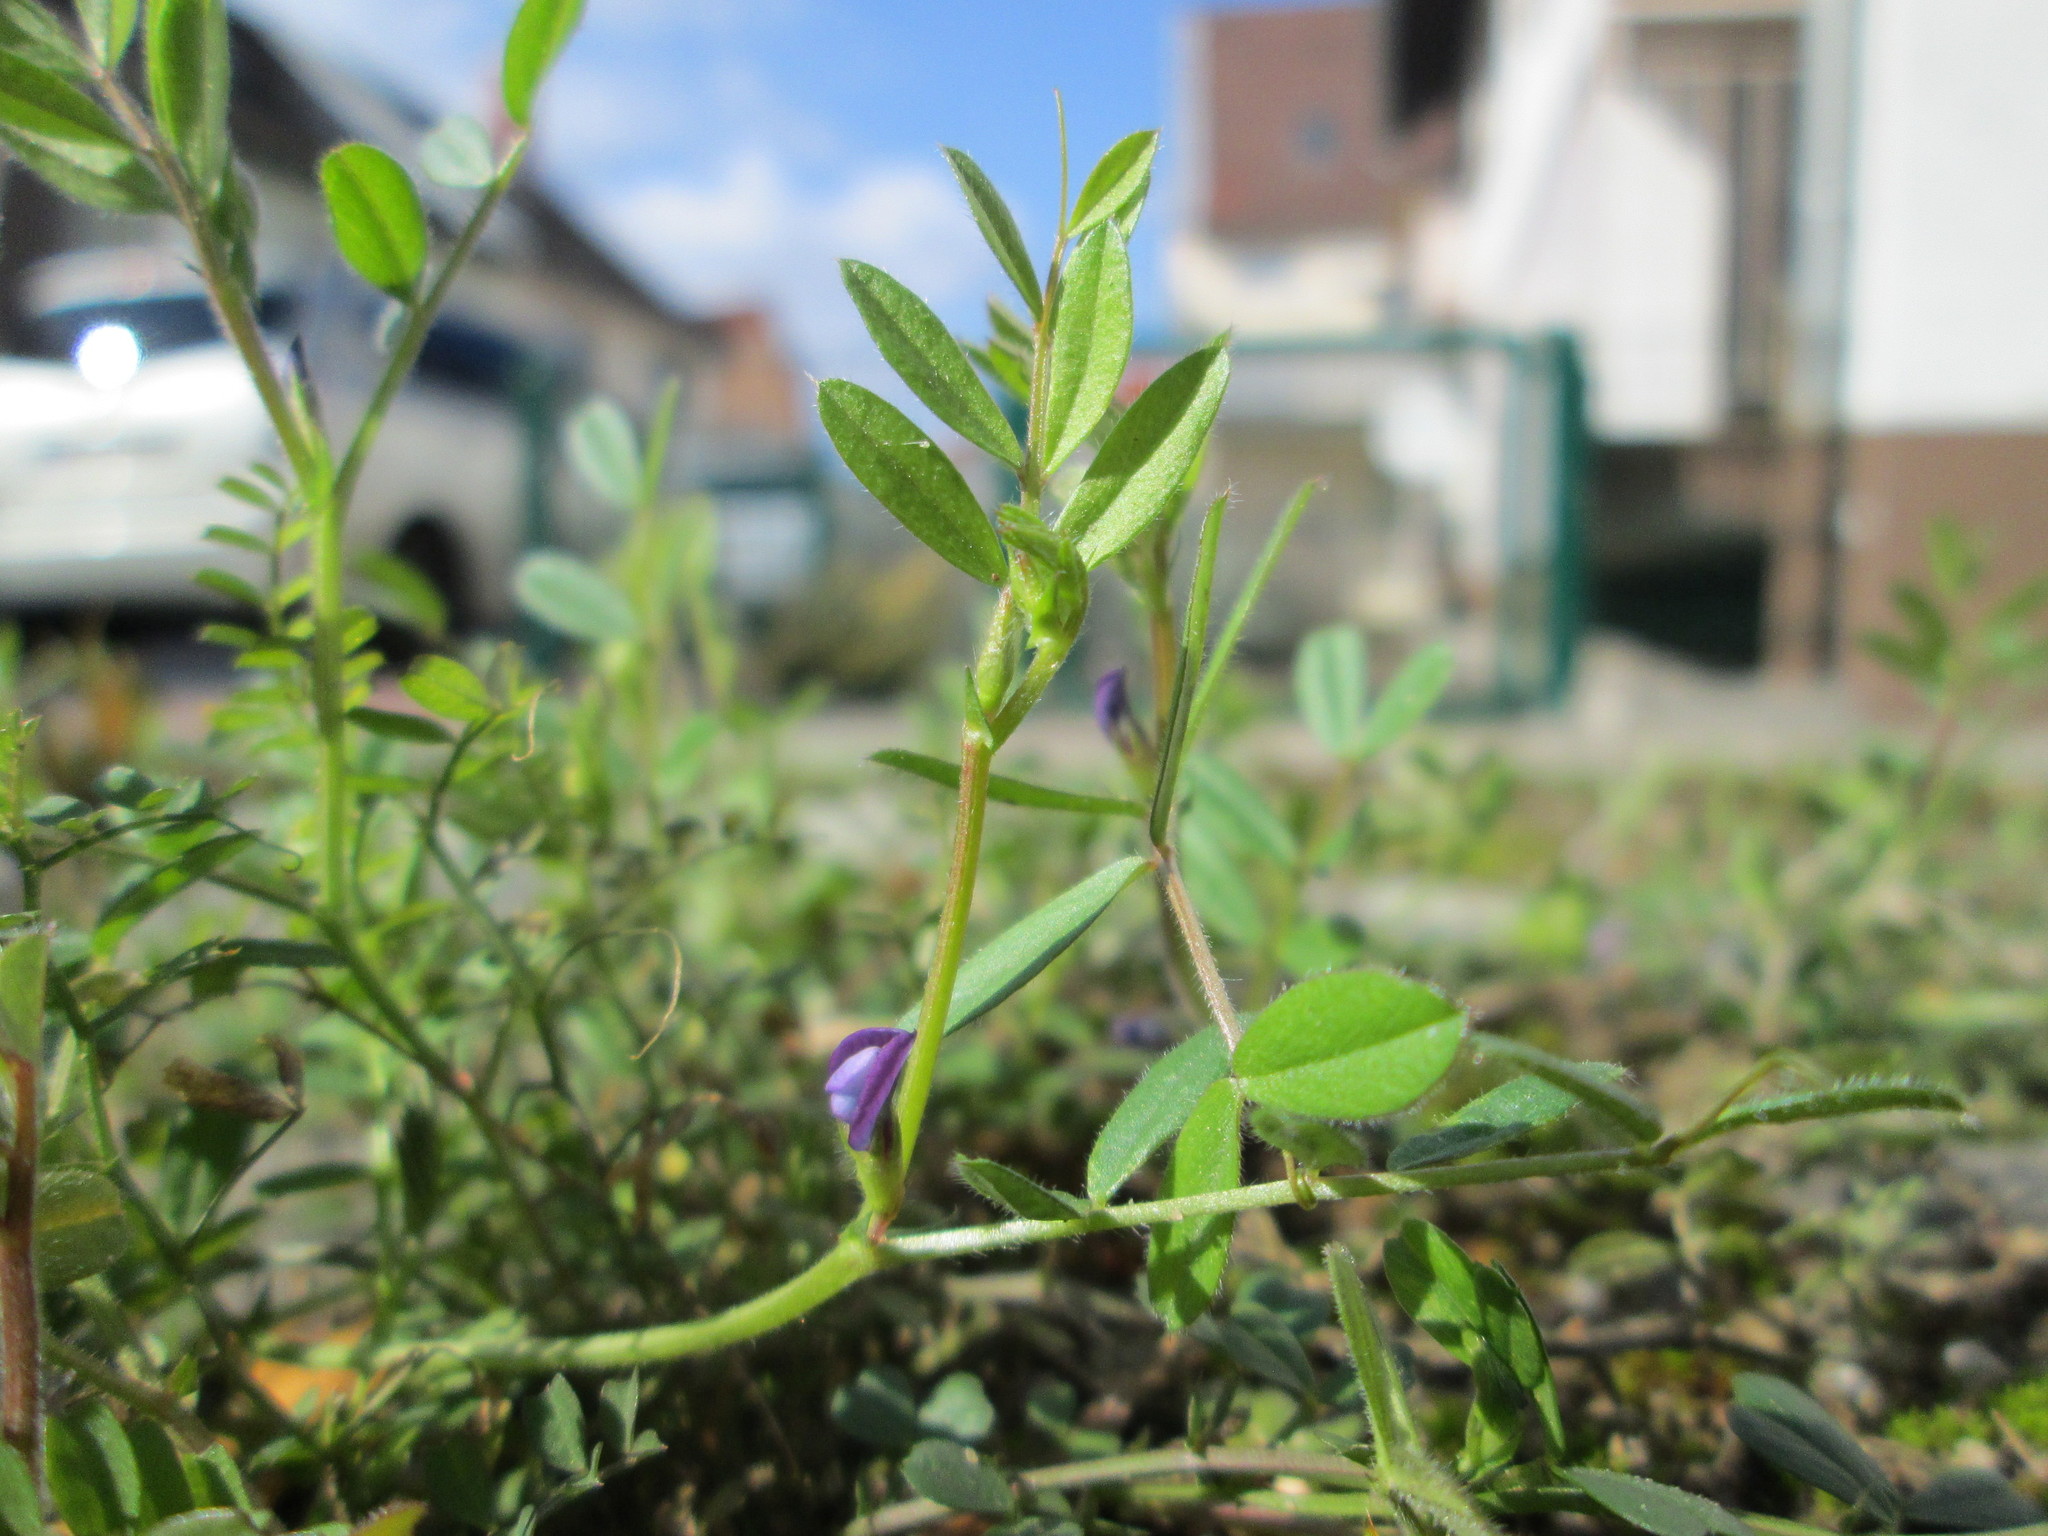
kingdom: Plantae
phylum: Tracheophyta
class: Magnoliopsida
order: Fabales
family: Fabaceae
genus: Vicia
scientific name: Vicia lathyroides
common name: Spring vetch
